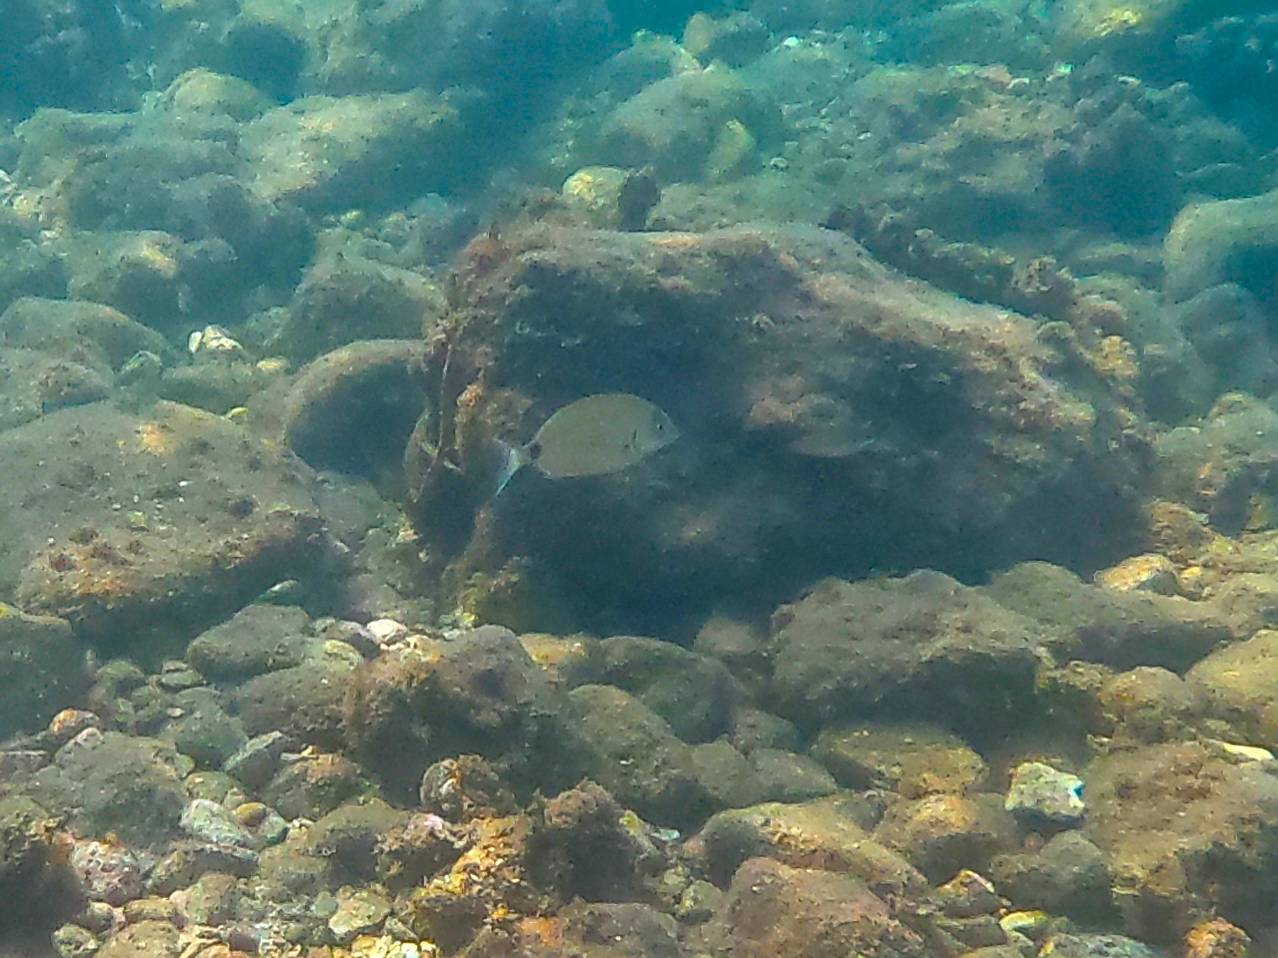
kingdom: Animalia
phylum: Chordata
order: Perciformes
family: Sparidae
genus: Diplodus
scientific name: Diplodus sargus
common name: White seabream
